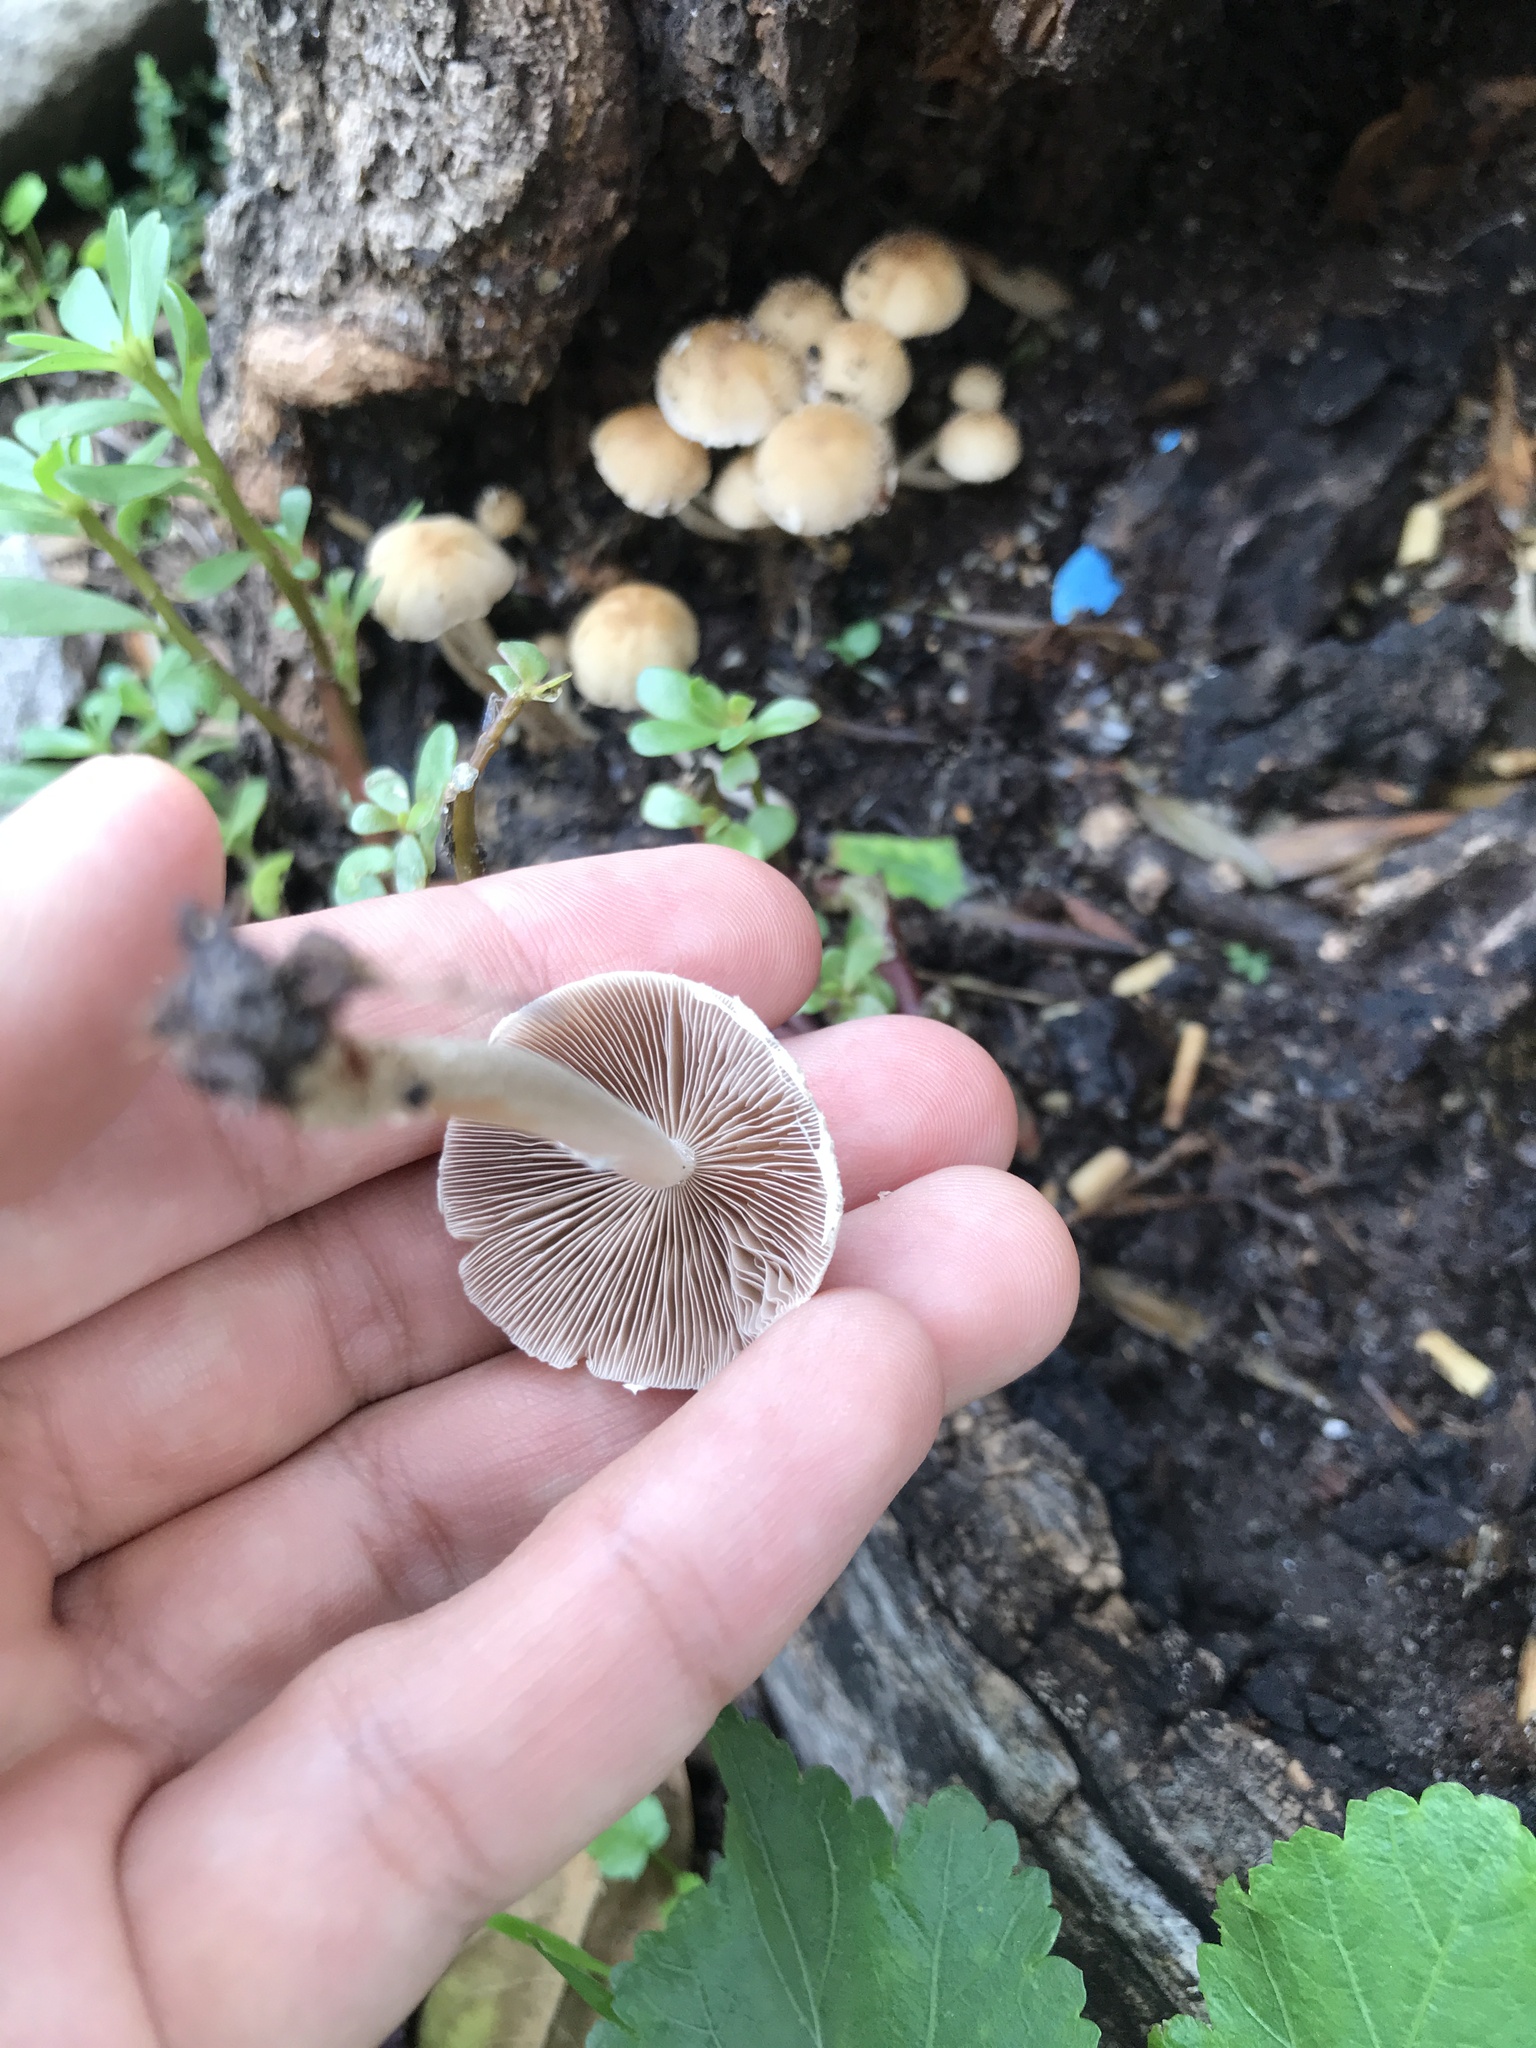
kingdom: Fungi
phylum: Basidiomycota
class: Agaricomycetes
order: Agaricales
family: Psathyrellaceae
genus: Candolleomyces
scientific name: Candolleomyces candolleanus
